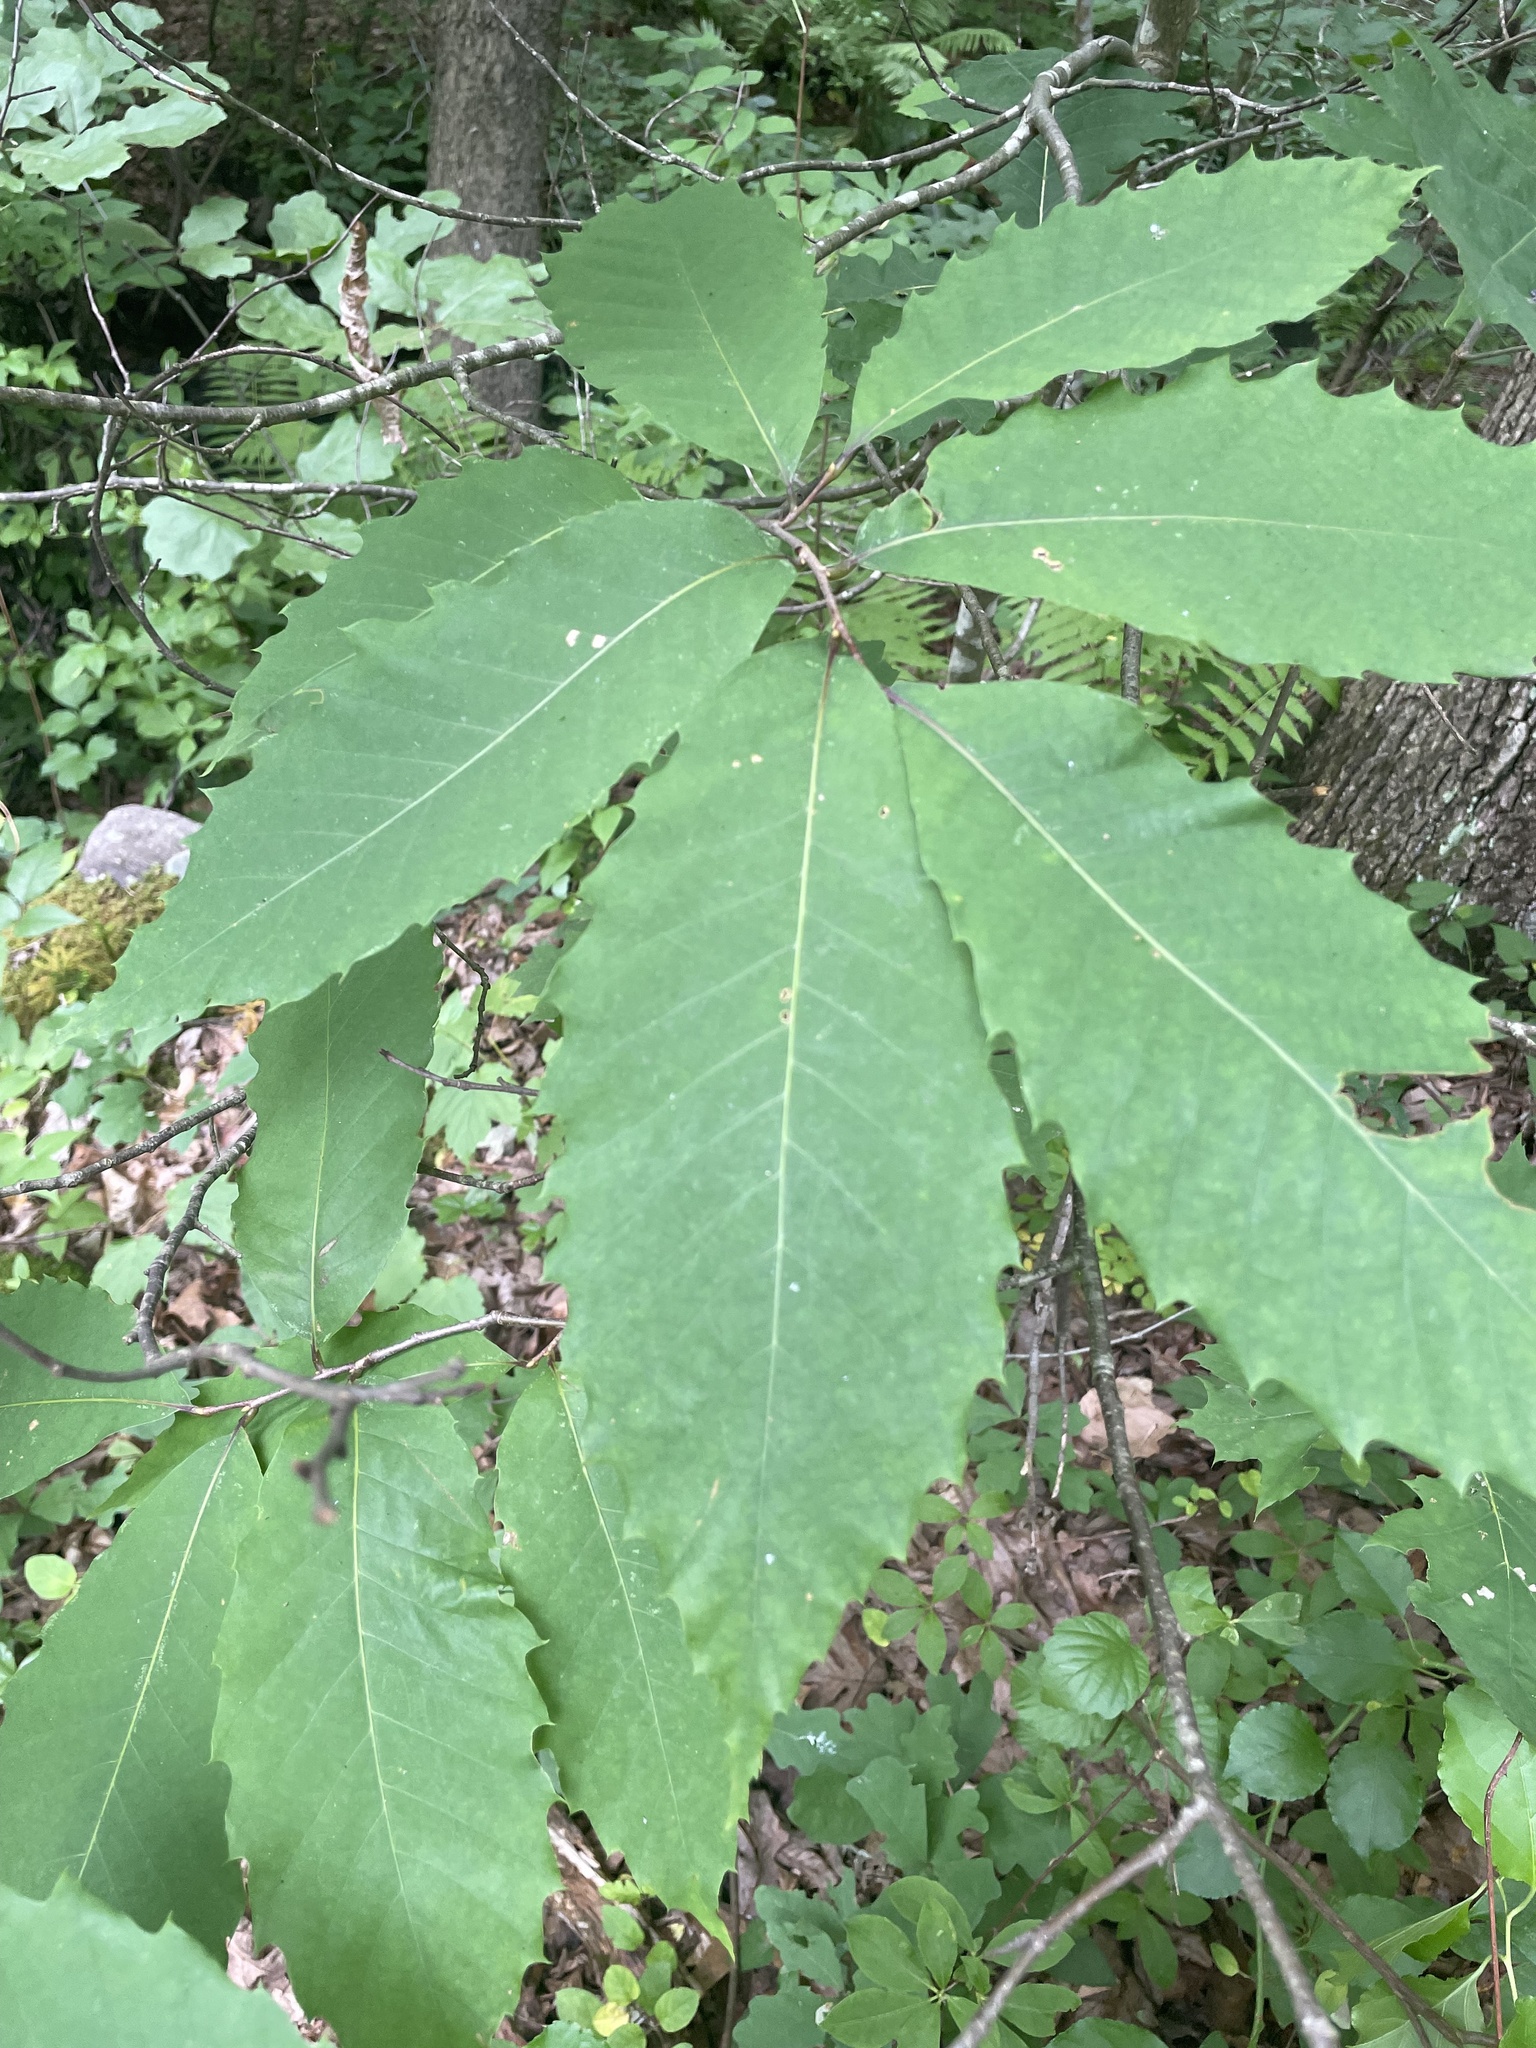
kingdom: Plantae
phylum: Tracheophyta
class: Magnoliopsida
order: Fagales
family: Fagaceae
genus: Castanea
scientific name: Castanea dentata
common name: American chestnut
